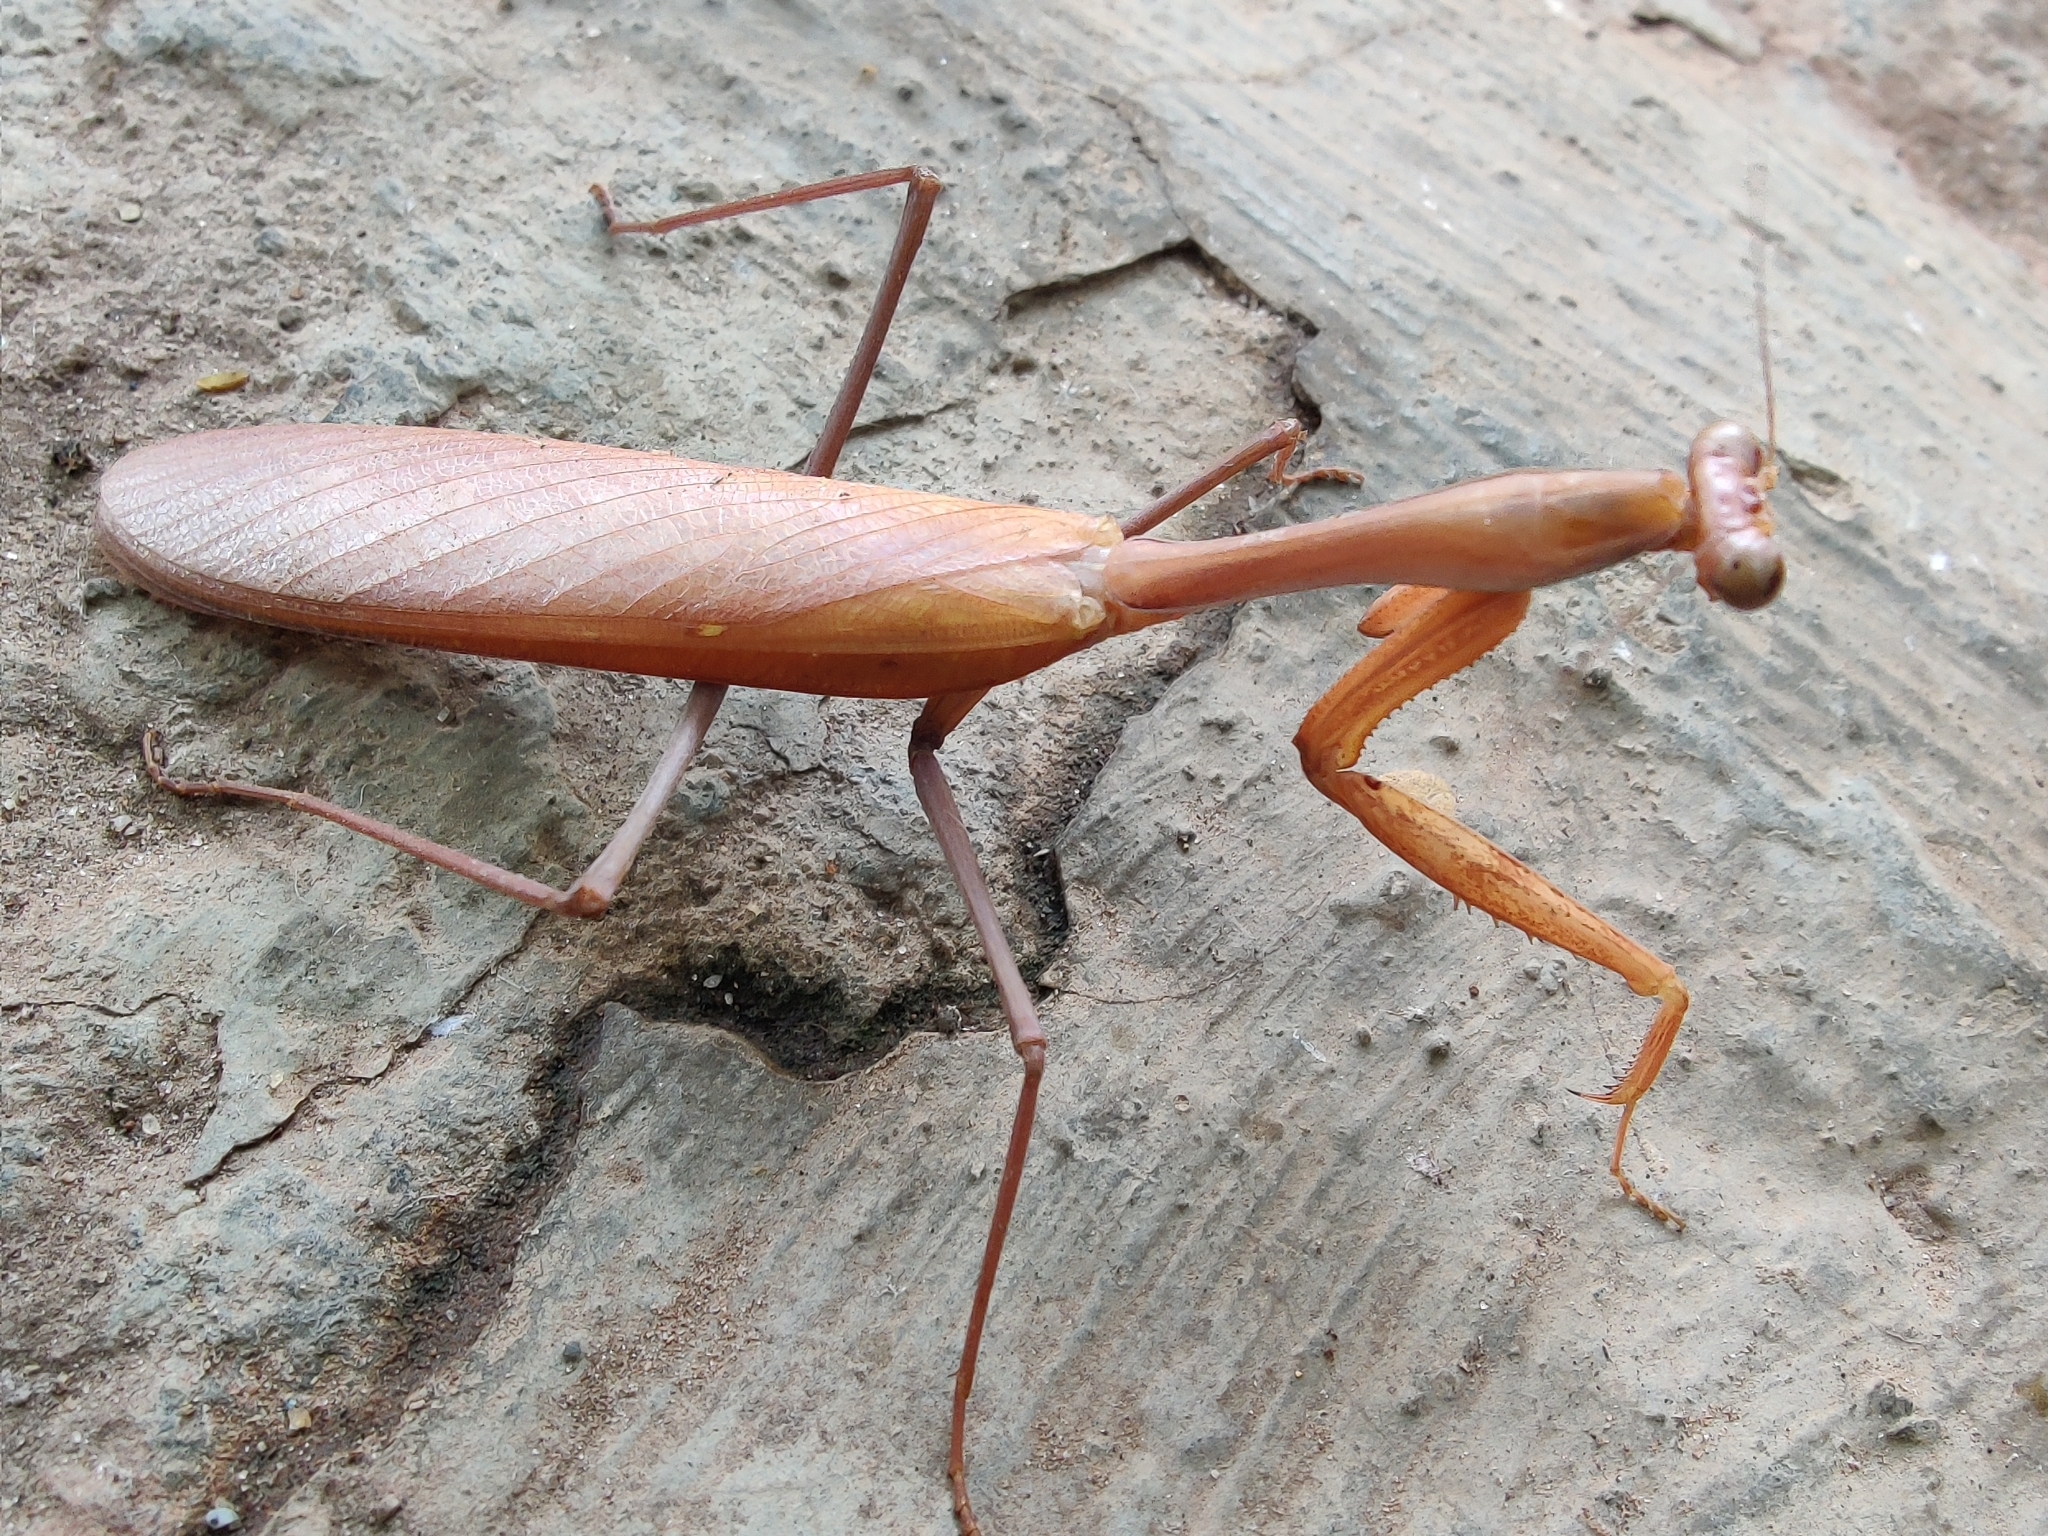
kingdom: Animalia
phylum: Arthropoda
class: Insecta
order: Mantodea
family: Mantidae
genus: Hierodula
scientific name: Hierodula membranacea
